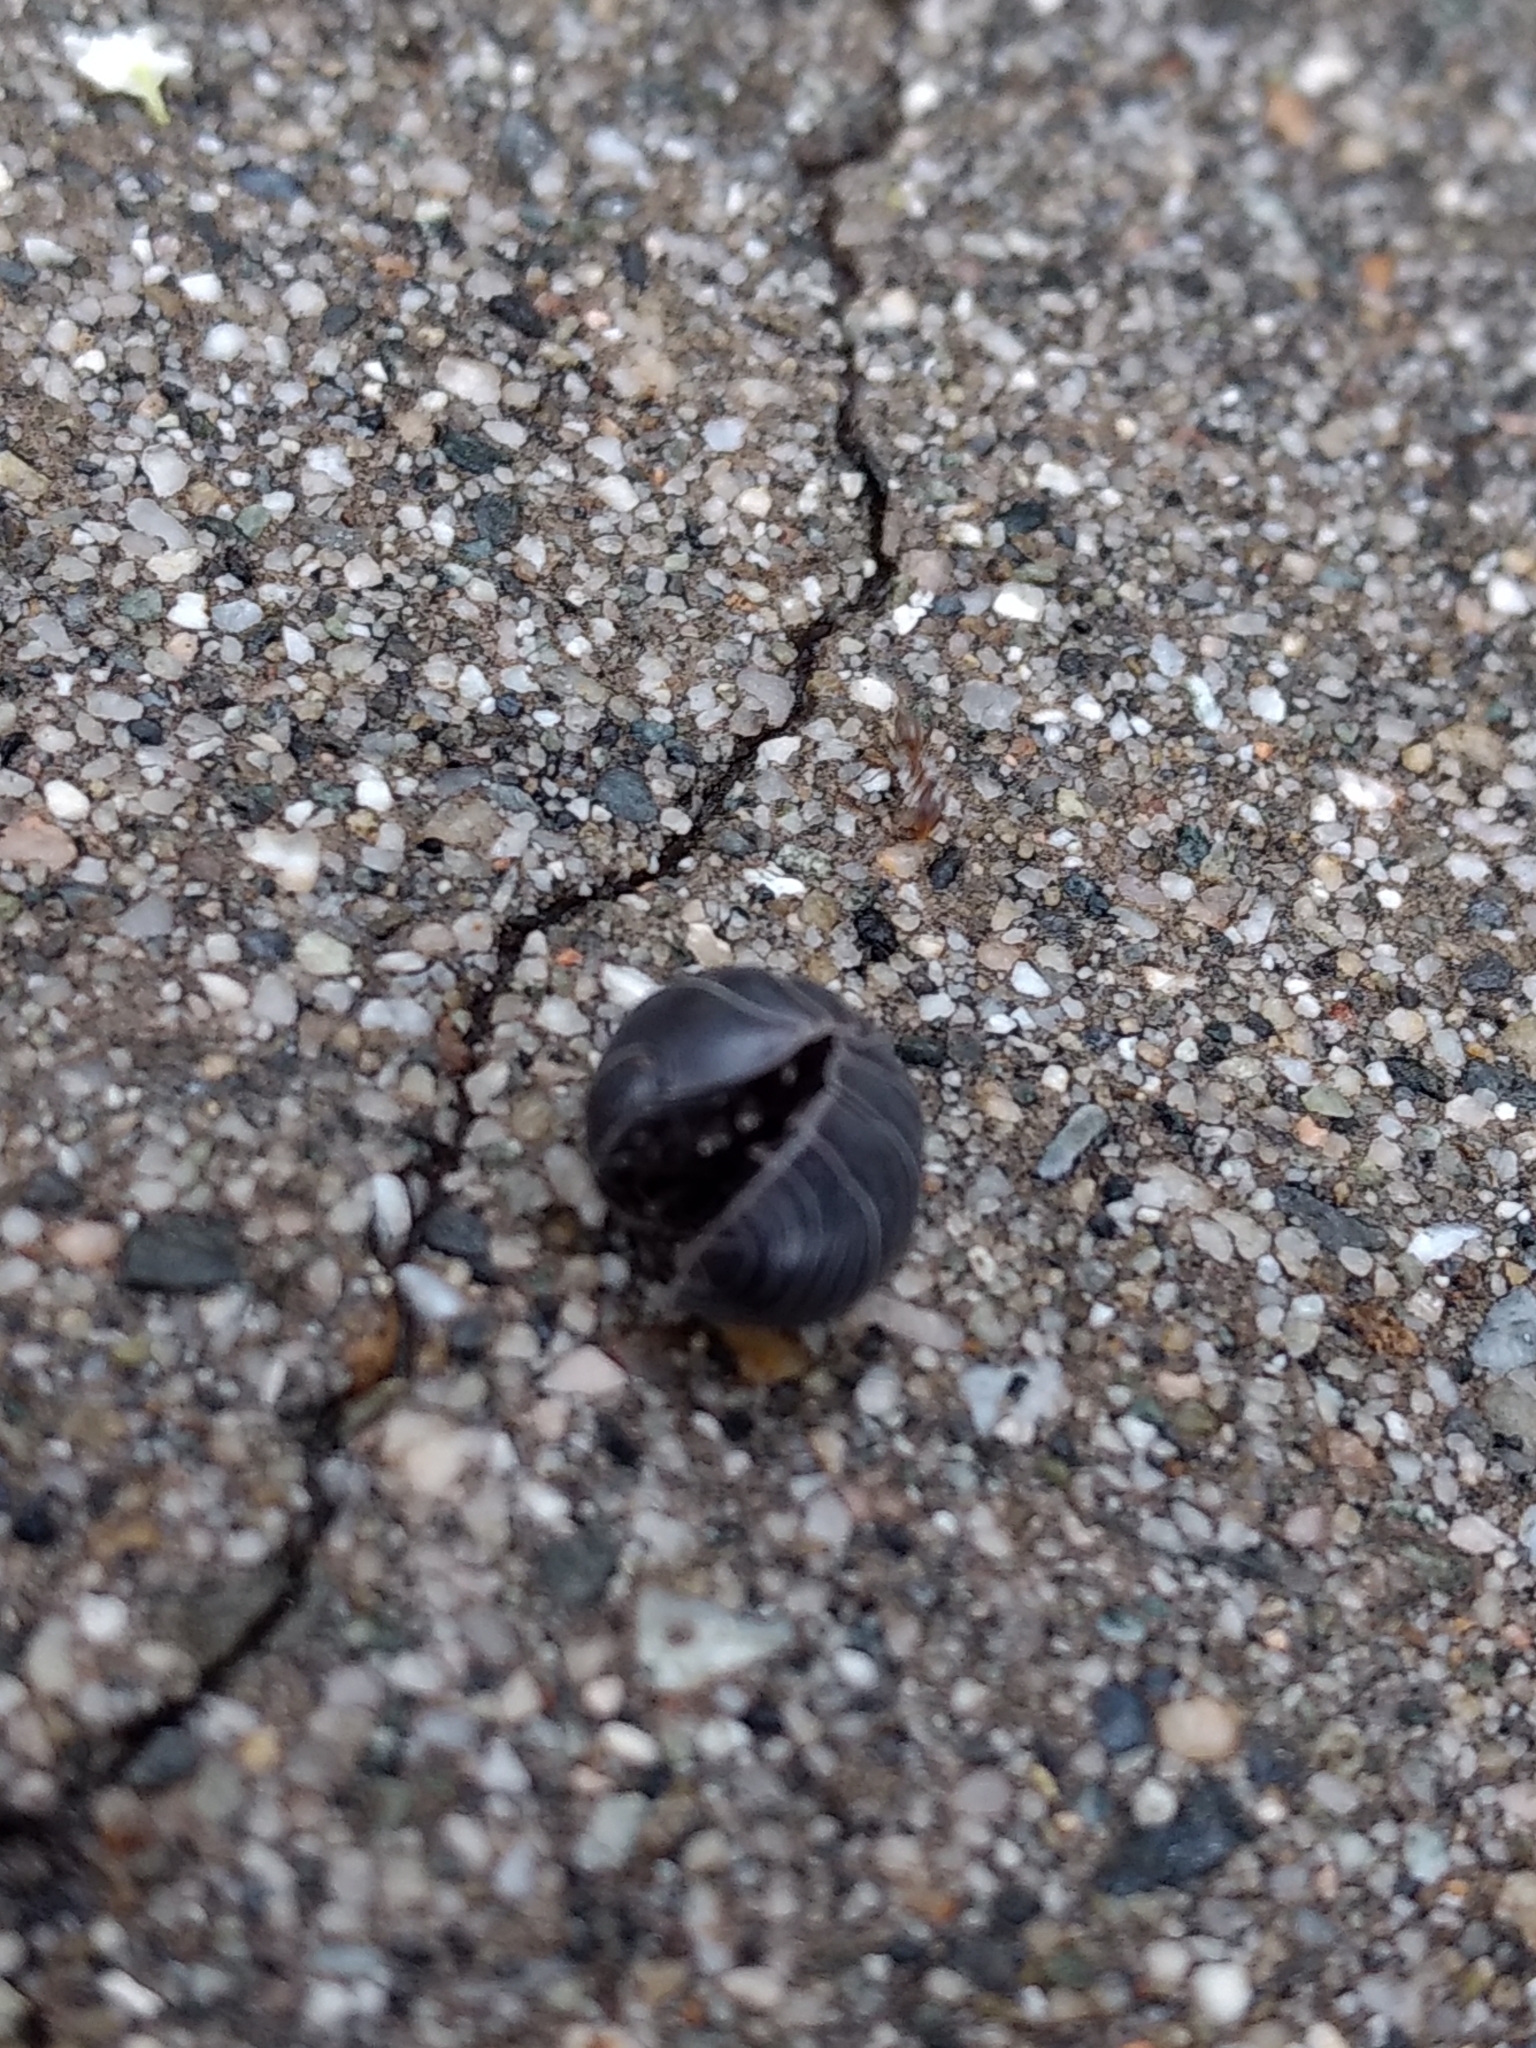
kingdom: Animalia
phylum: Arthropoda
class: Malacostraca
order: Isopoda
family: Armadillidiidae
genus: Armadillidium
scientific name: Armadillidium vulgare
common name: Common pill woodlouse
